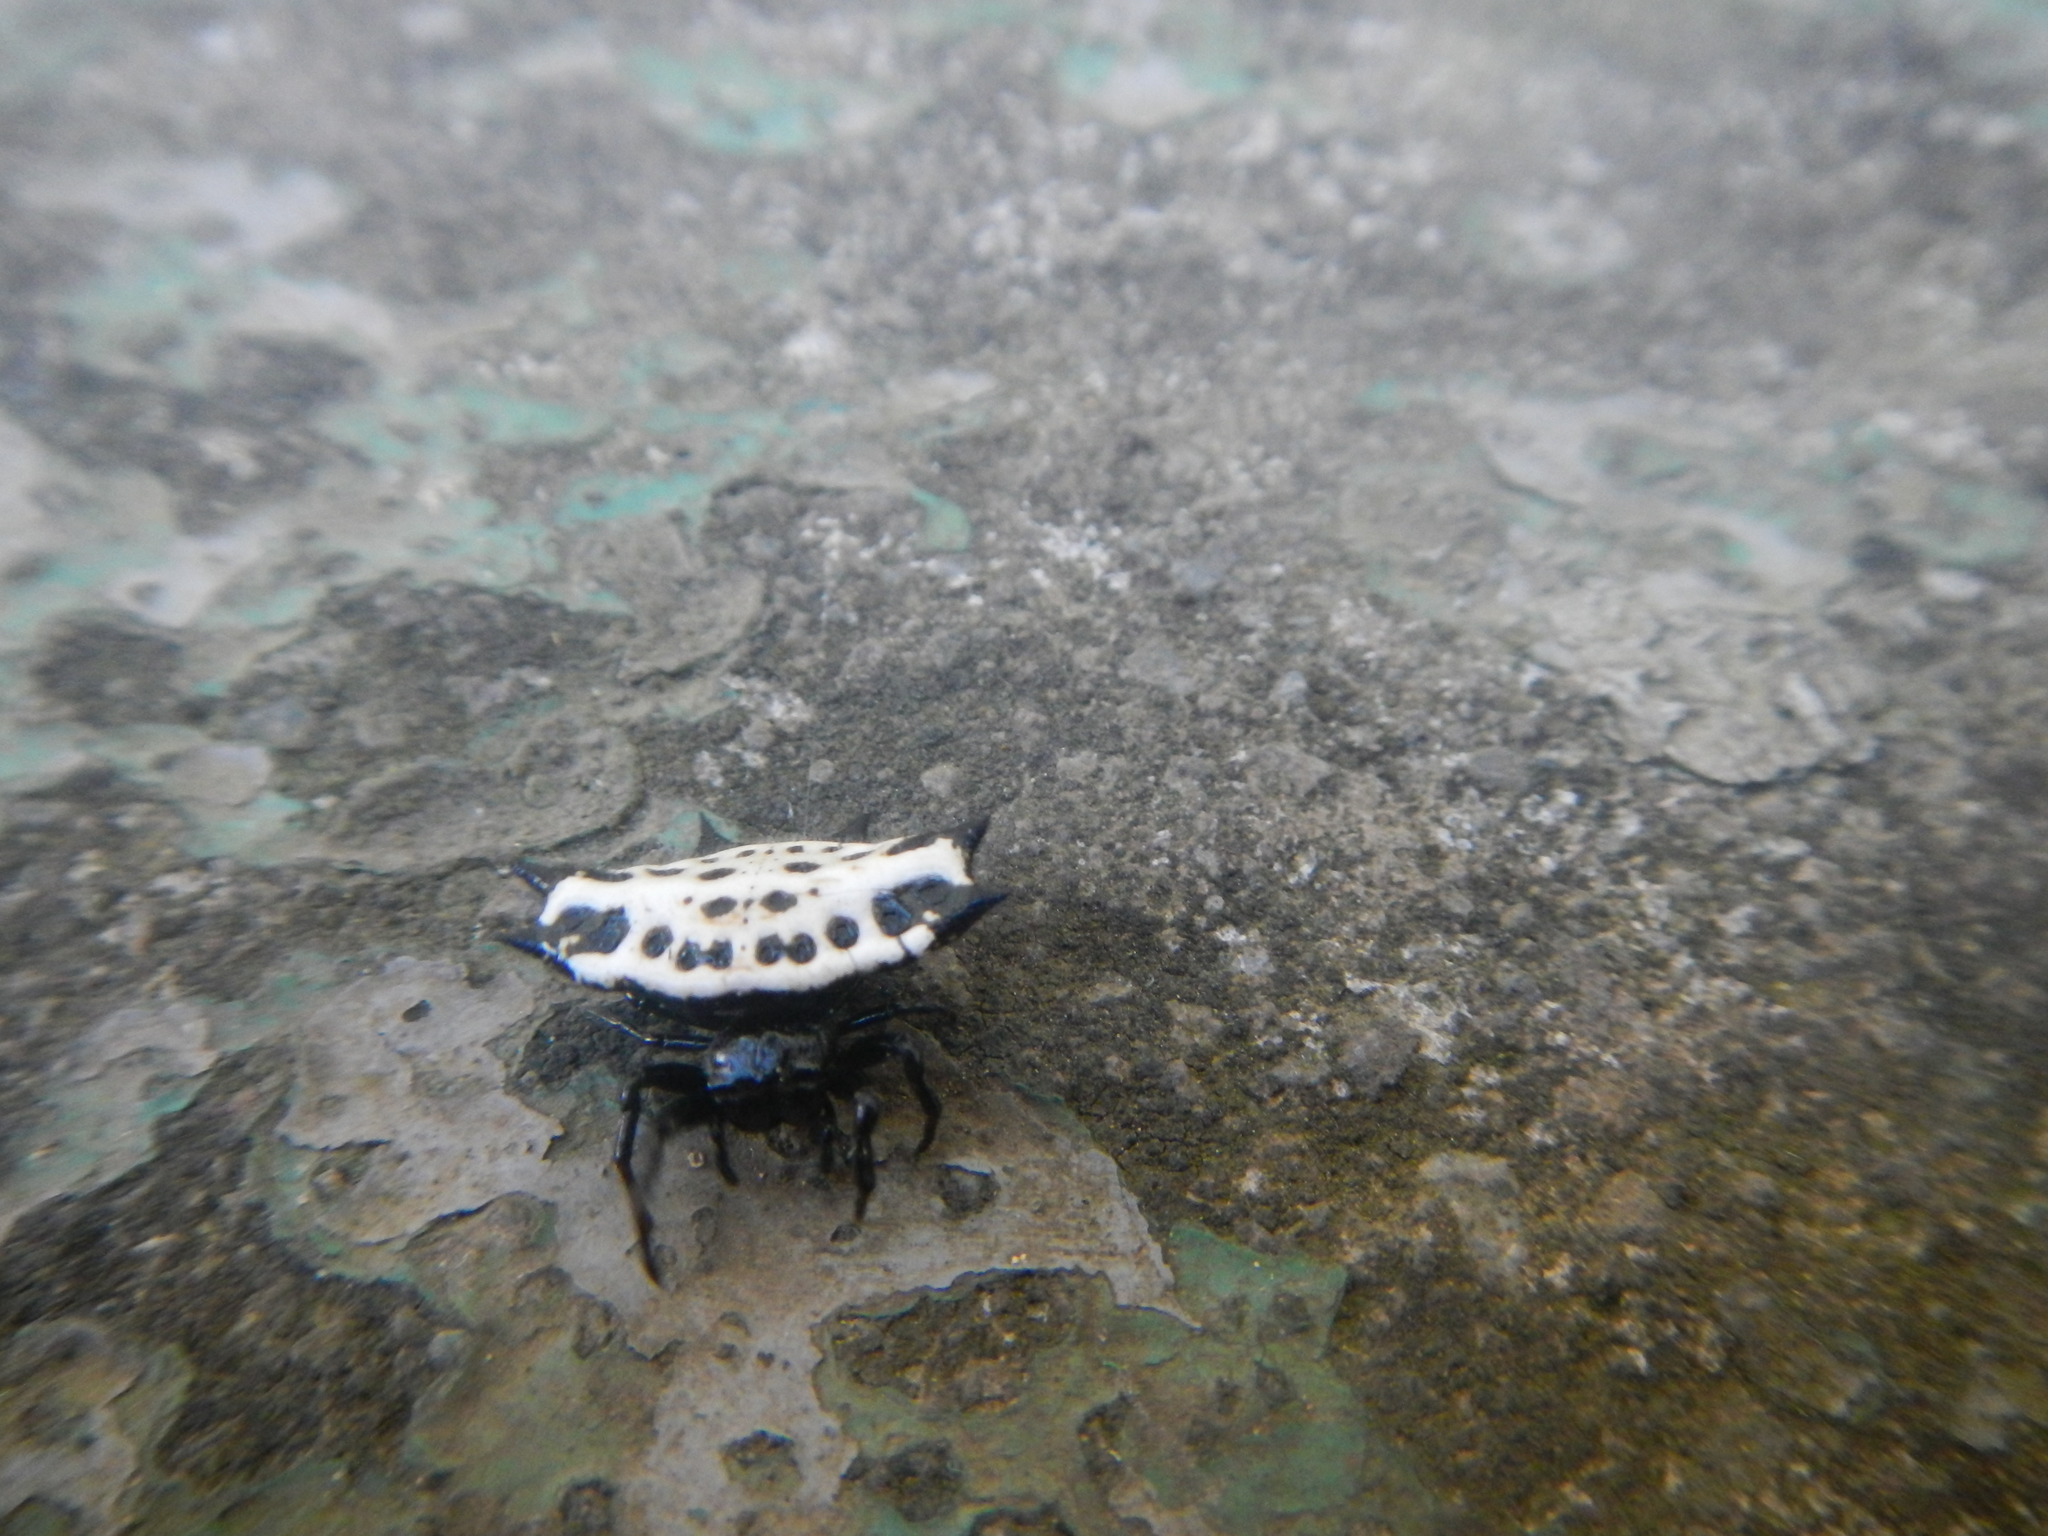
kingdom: Animalia
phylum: Arthropoda
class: Arachnida
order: Araneae
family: Araneidae
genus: Gasteracantha
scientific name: Gasteracantha cancriformis
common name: Orb weavers
